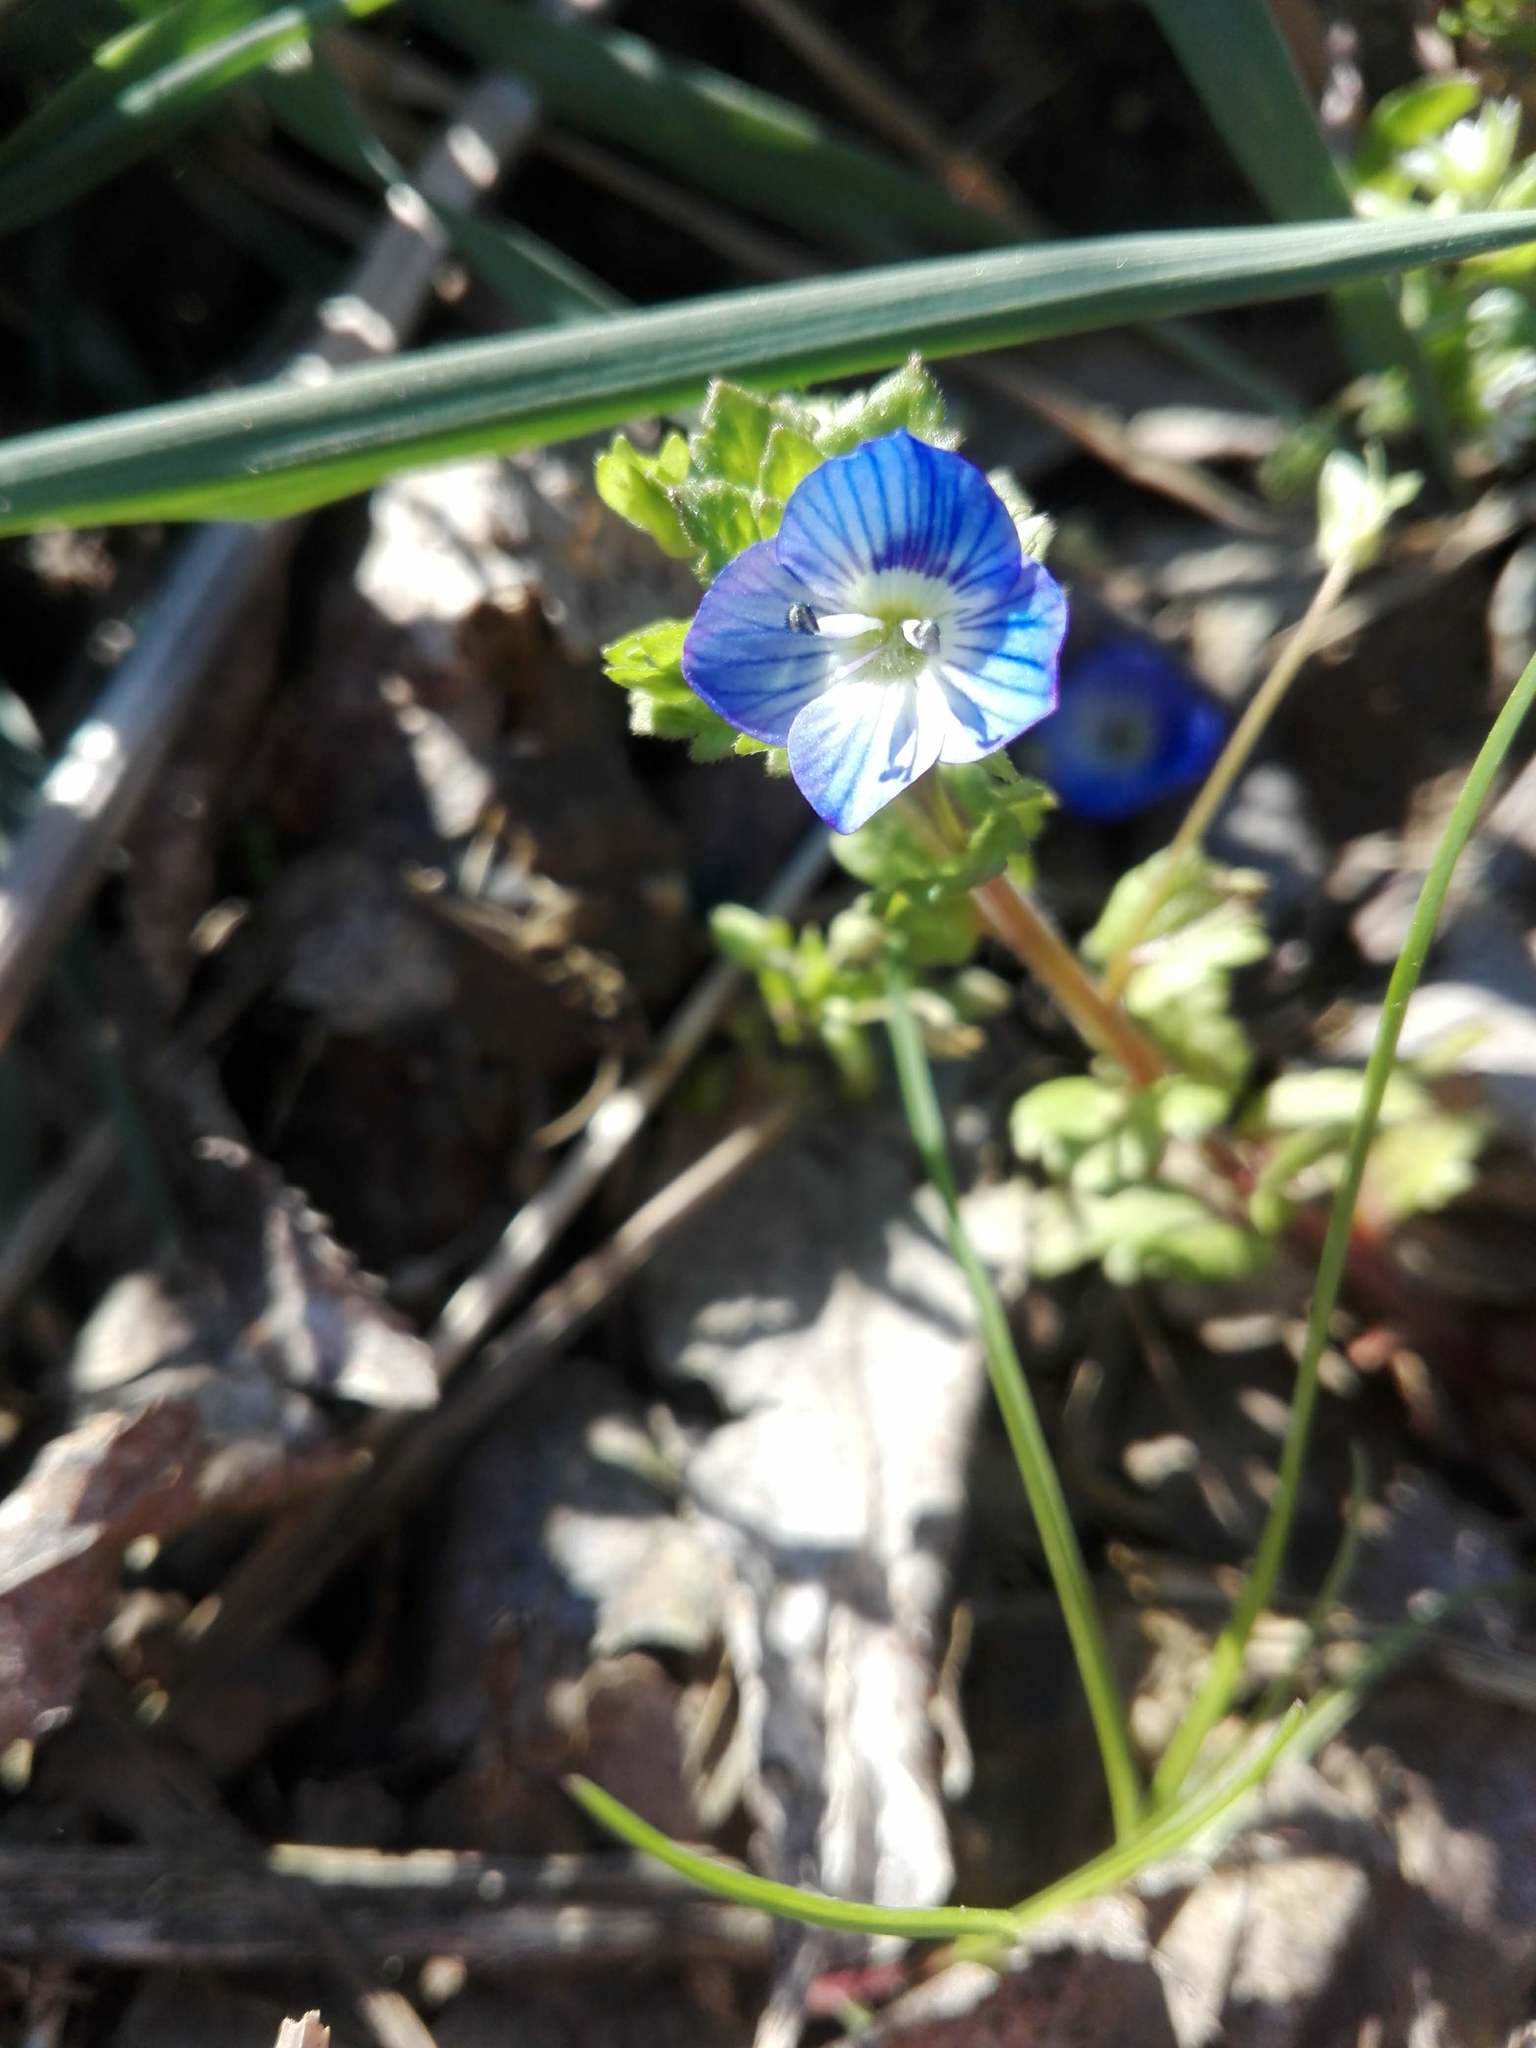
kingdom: Plantae
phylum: Tracheophyta
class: Magnoliopsida
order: Lamiales
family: Plantaginaceae
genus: Veronica
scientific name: Veronica persica
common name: Common field-speedwell
